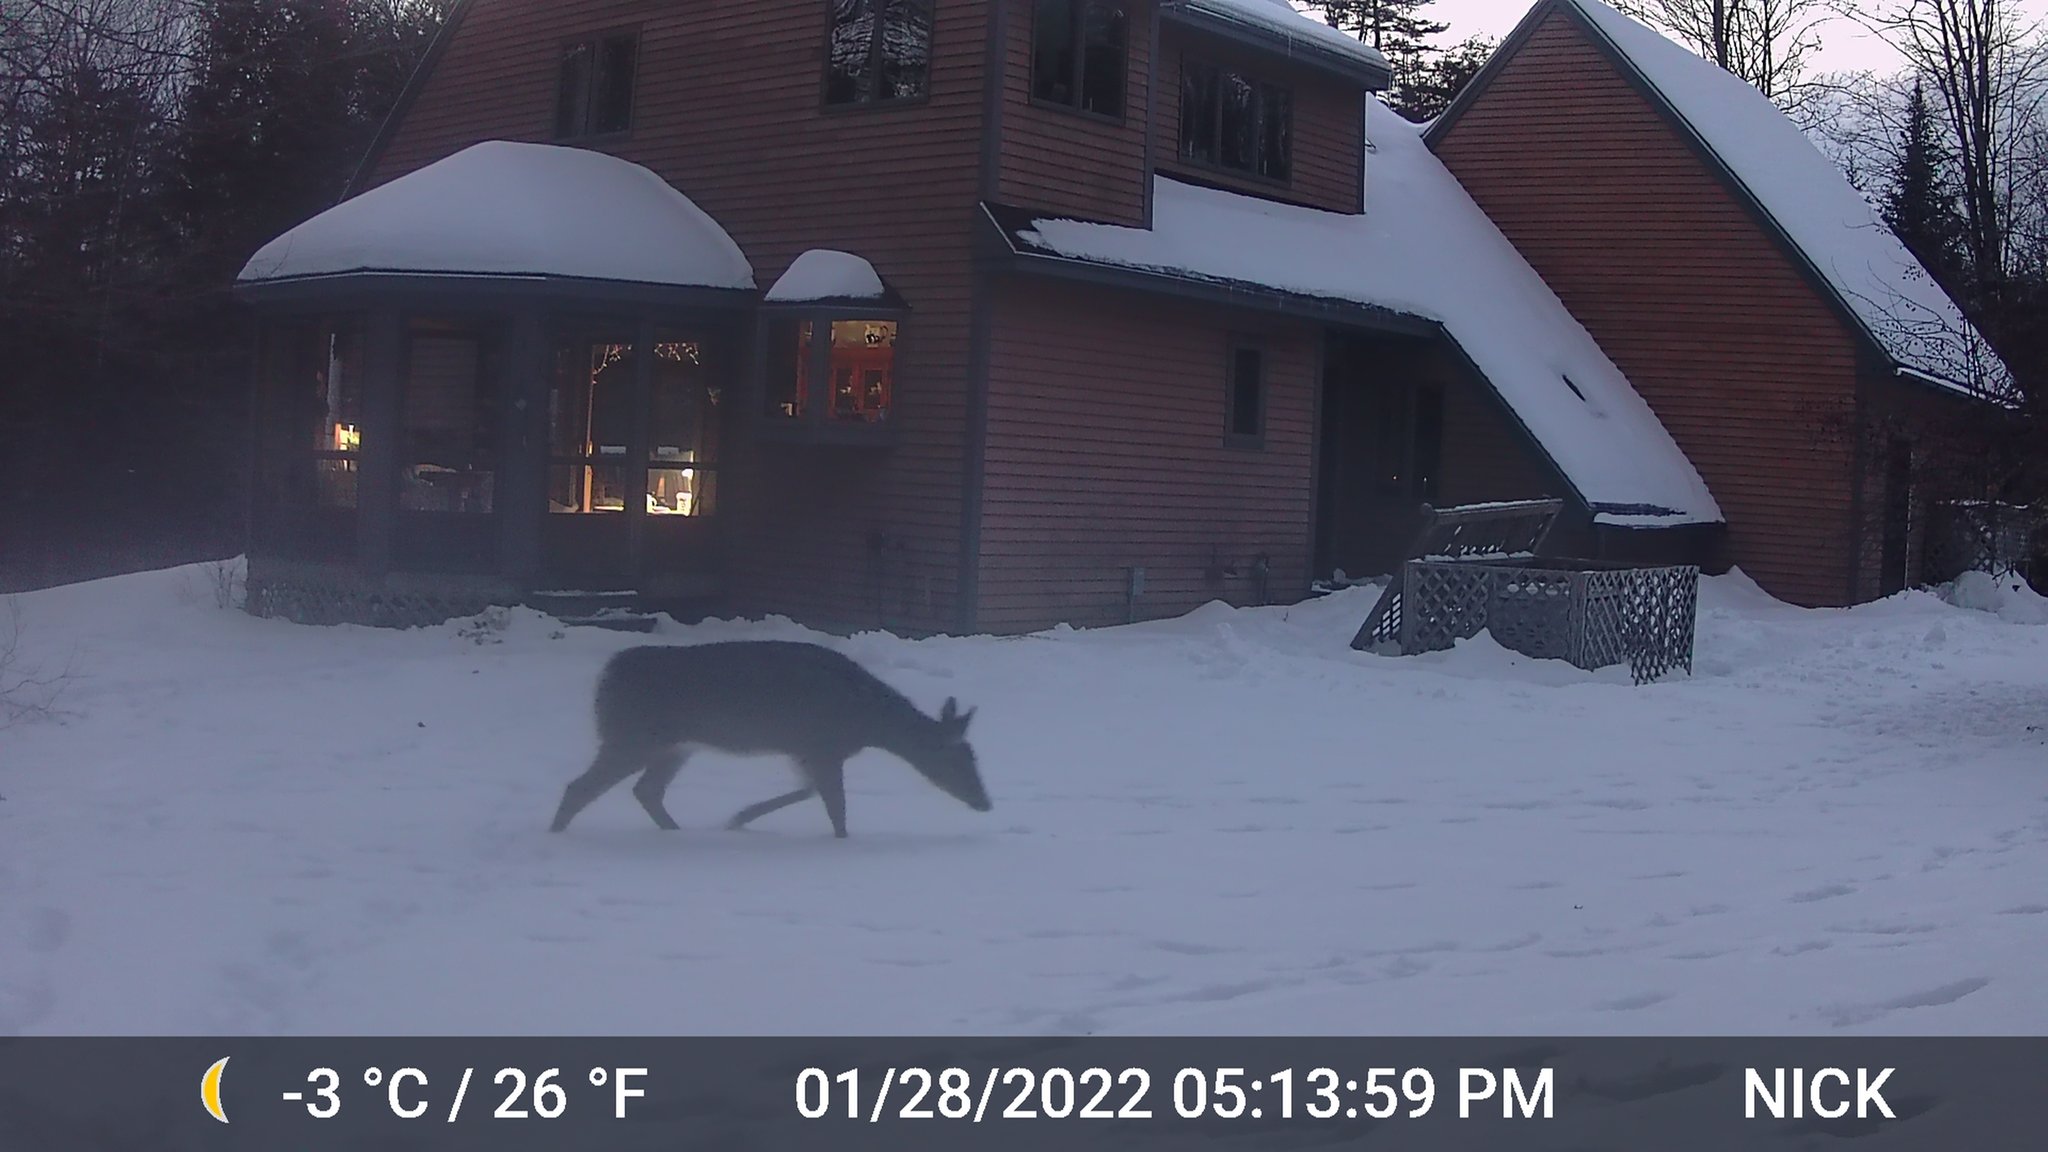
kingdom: Animalia
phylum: Chordata
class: Mammalia
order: Artiodactyla
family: Cervidae
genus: Odocoileus
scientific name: Odocoileus virginianus
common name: White-tailed deer
